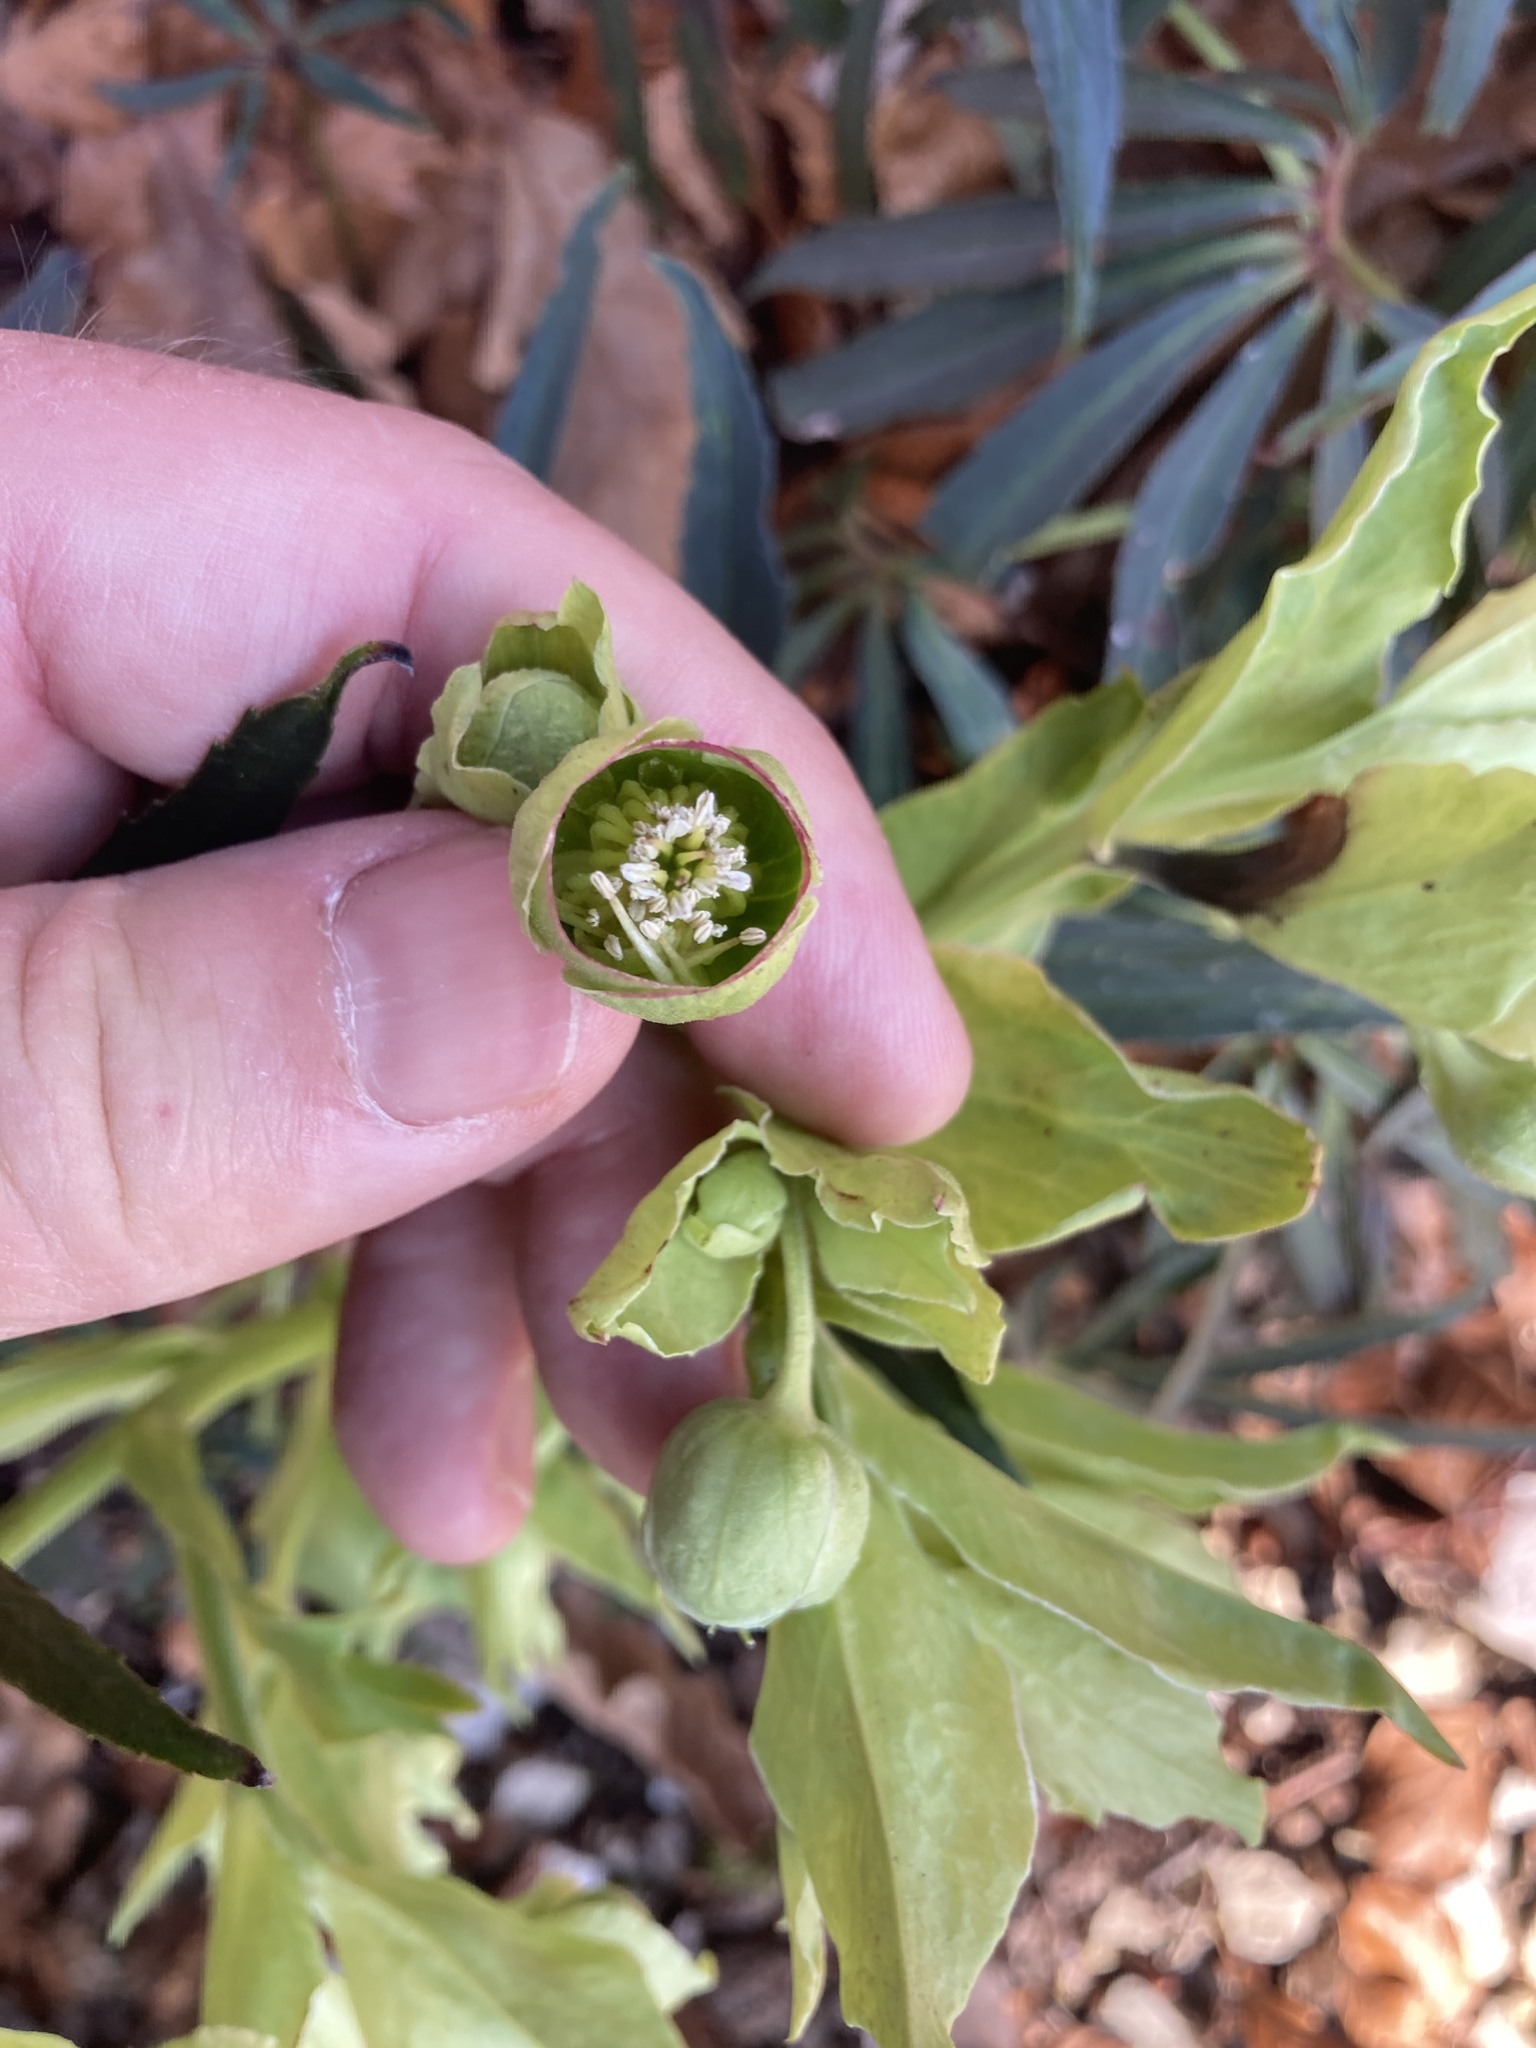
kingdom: Plantae
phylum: Tracheophyta
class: Magnoliopsida
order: Ranunculales
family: Ranunculaceae
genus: Helleborus
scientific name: Helleborus foetidus
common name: Stinking hellebore
